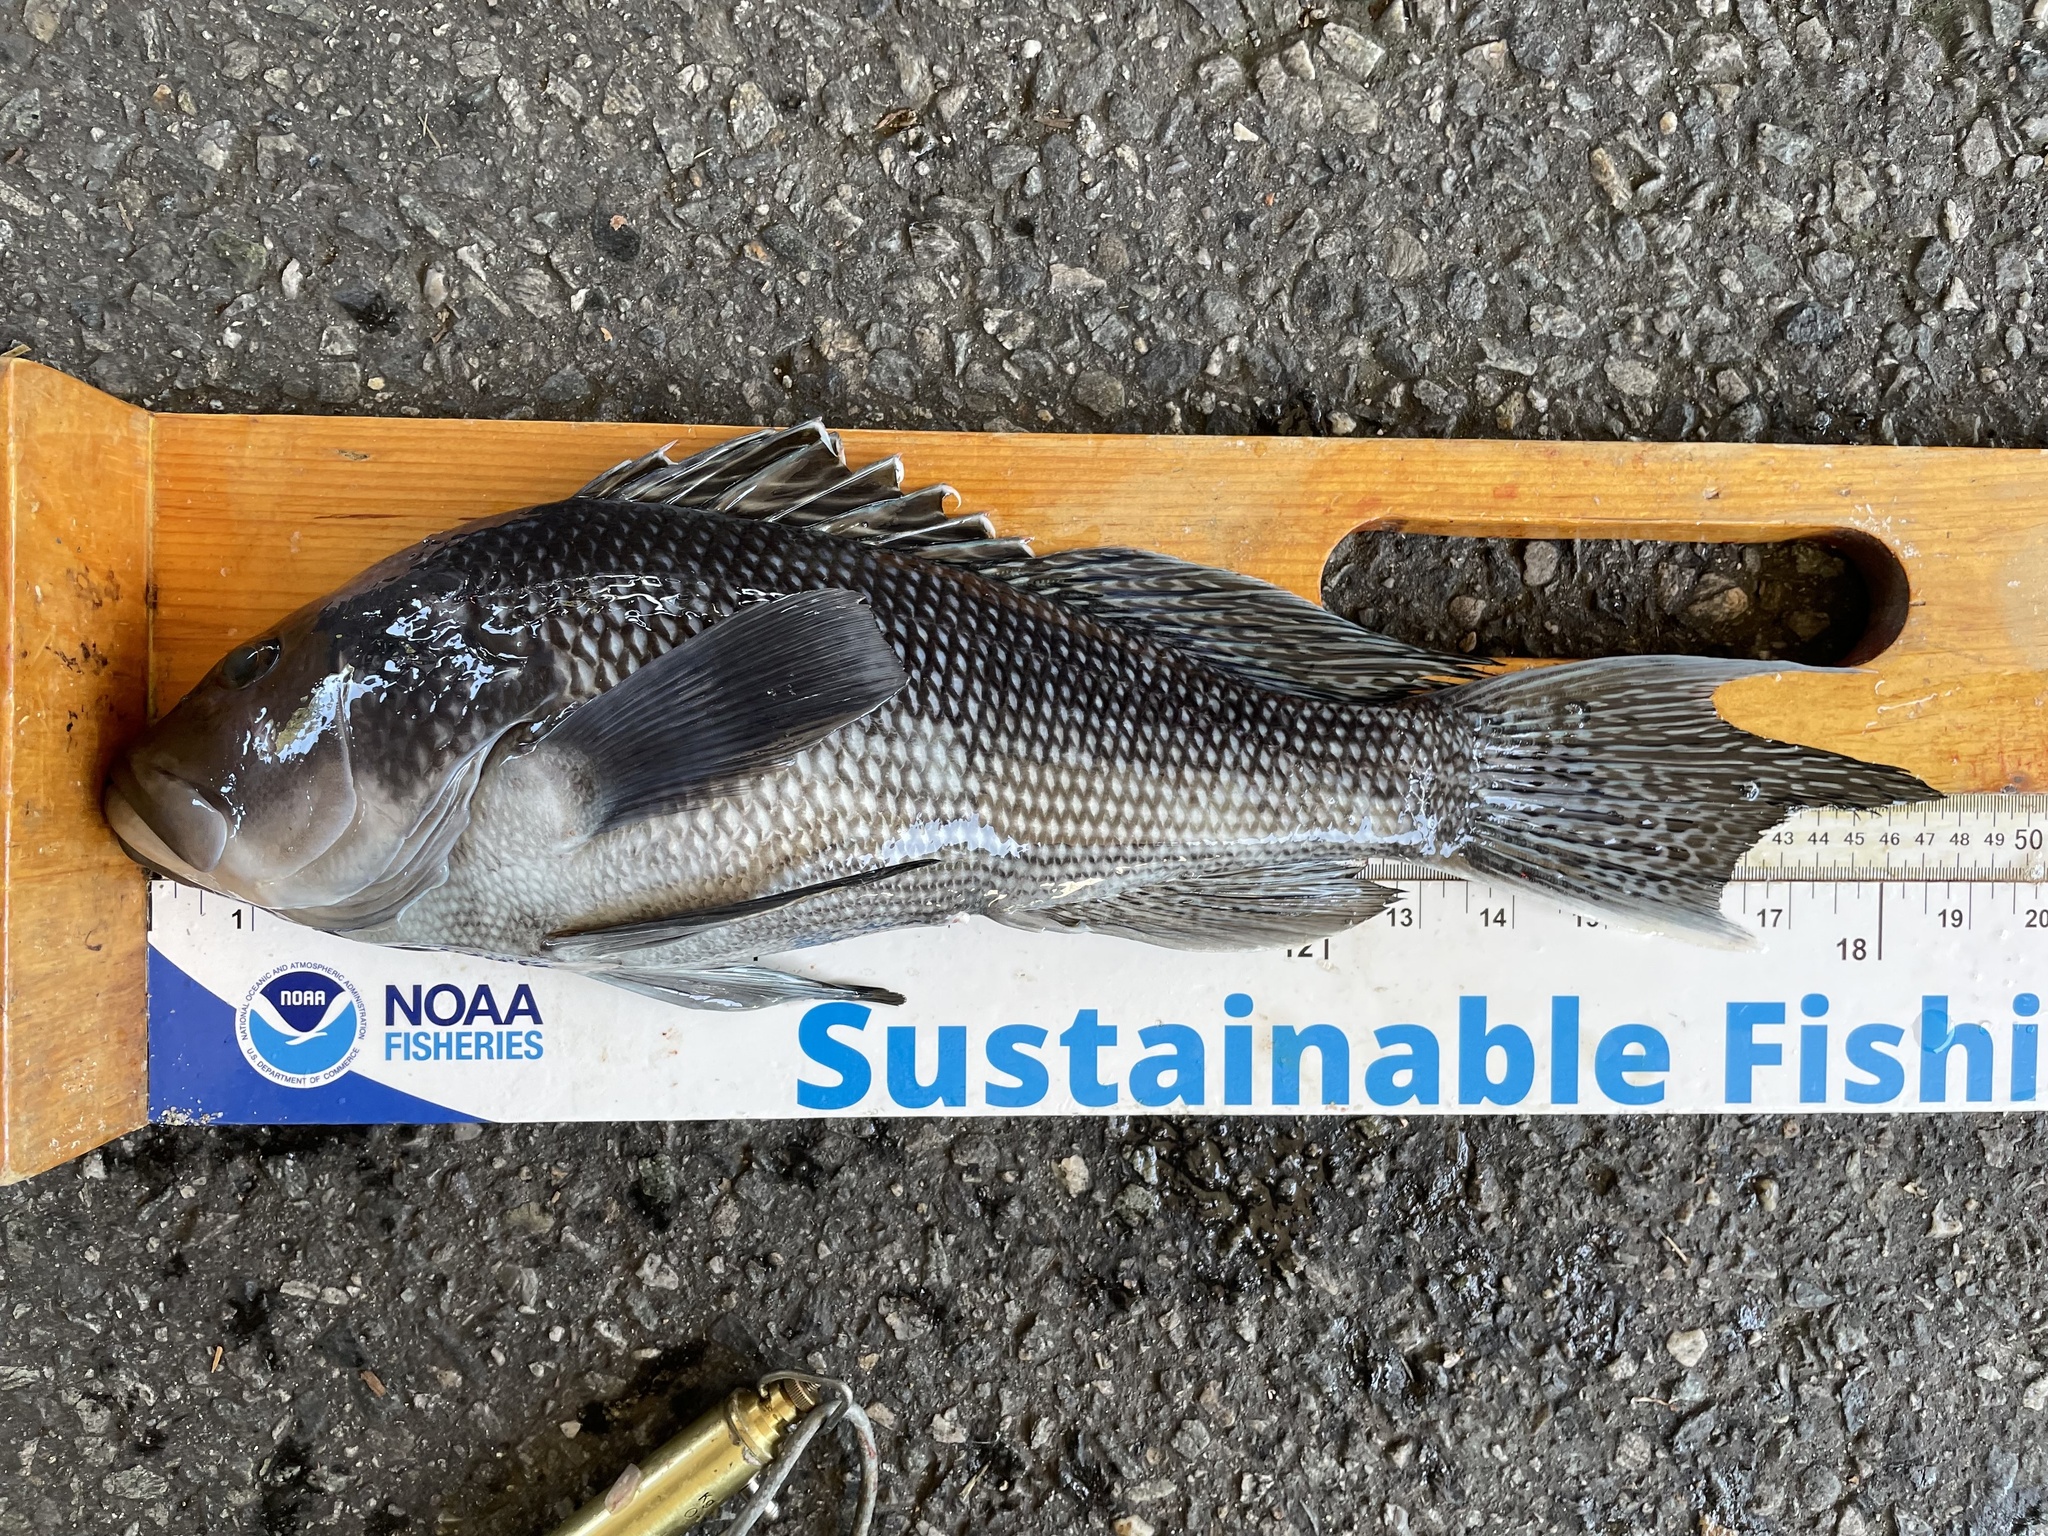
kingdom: Animalia
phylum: Chordata
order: Perciformes
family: Serranidae
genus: Centropristis
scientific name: Centropristis striata
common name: Black sea bass
